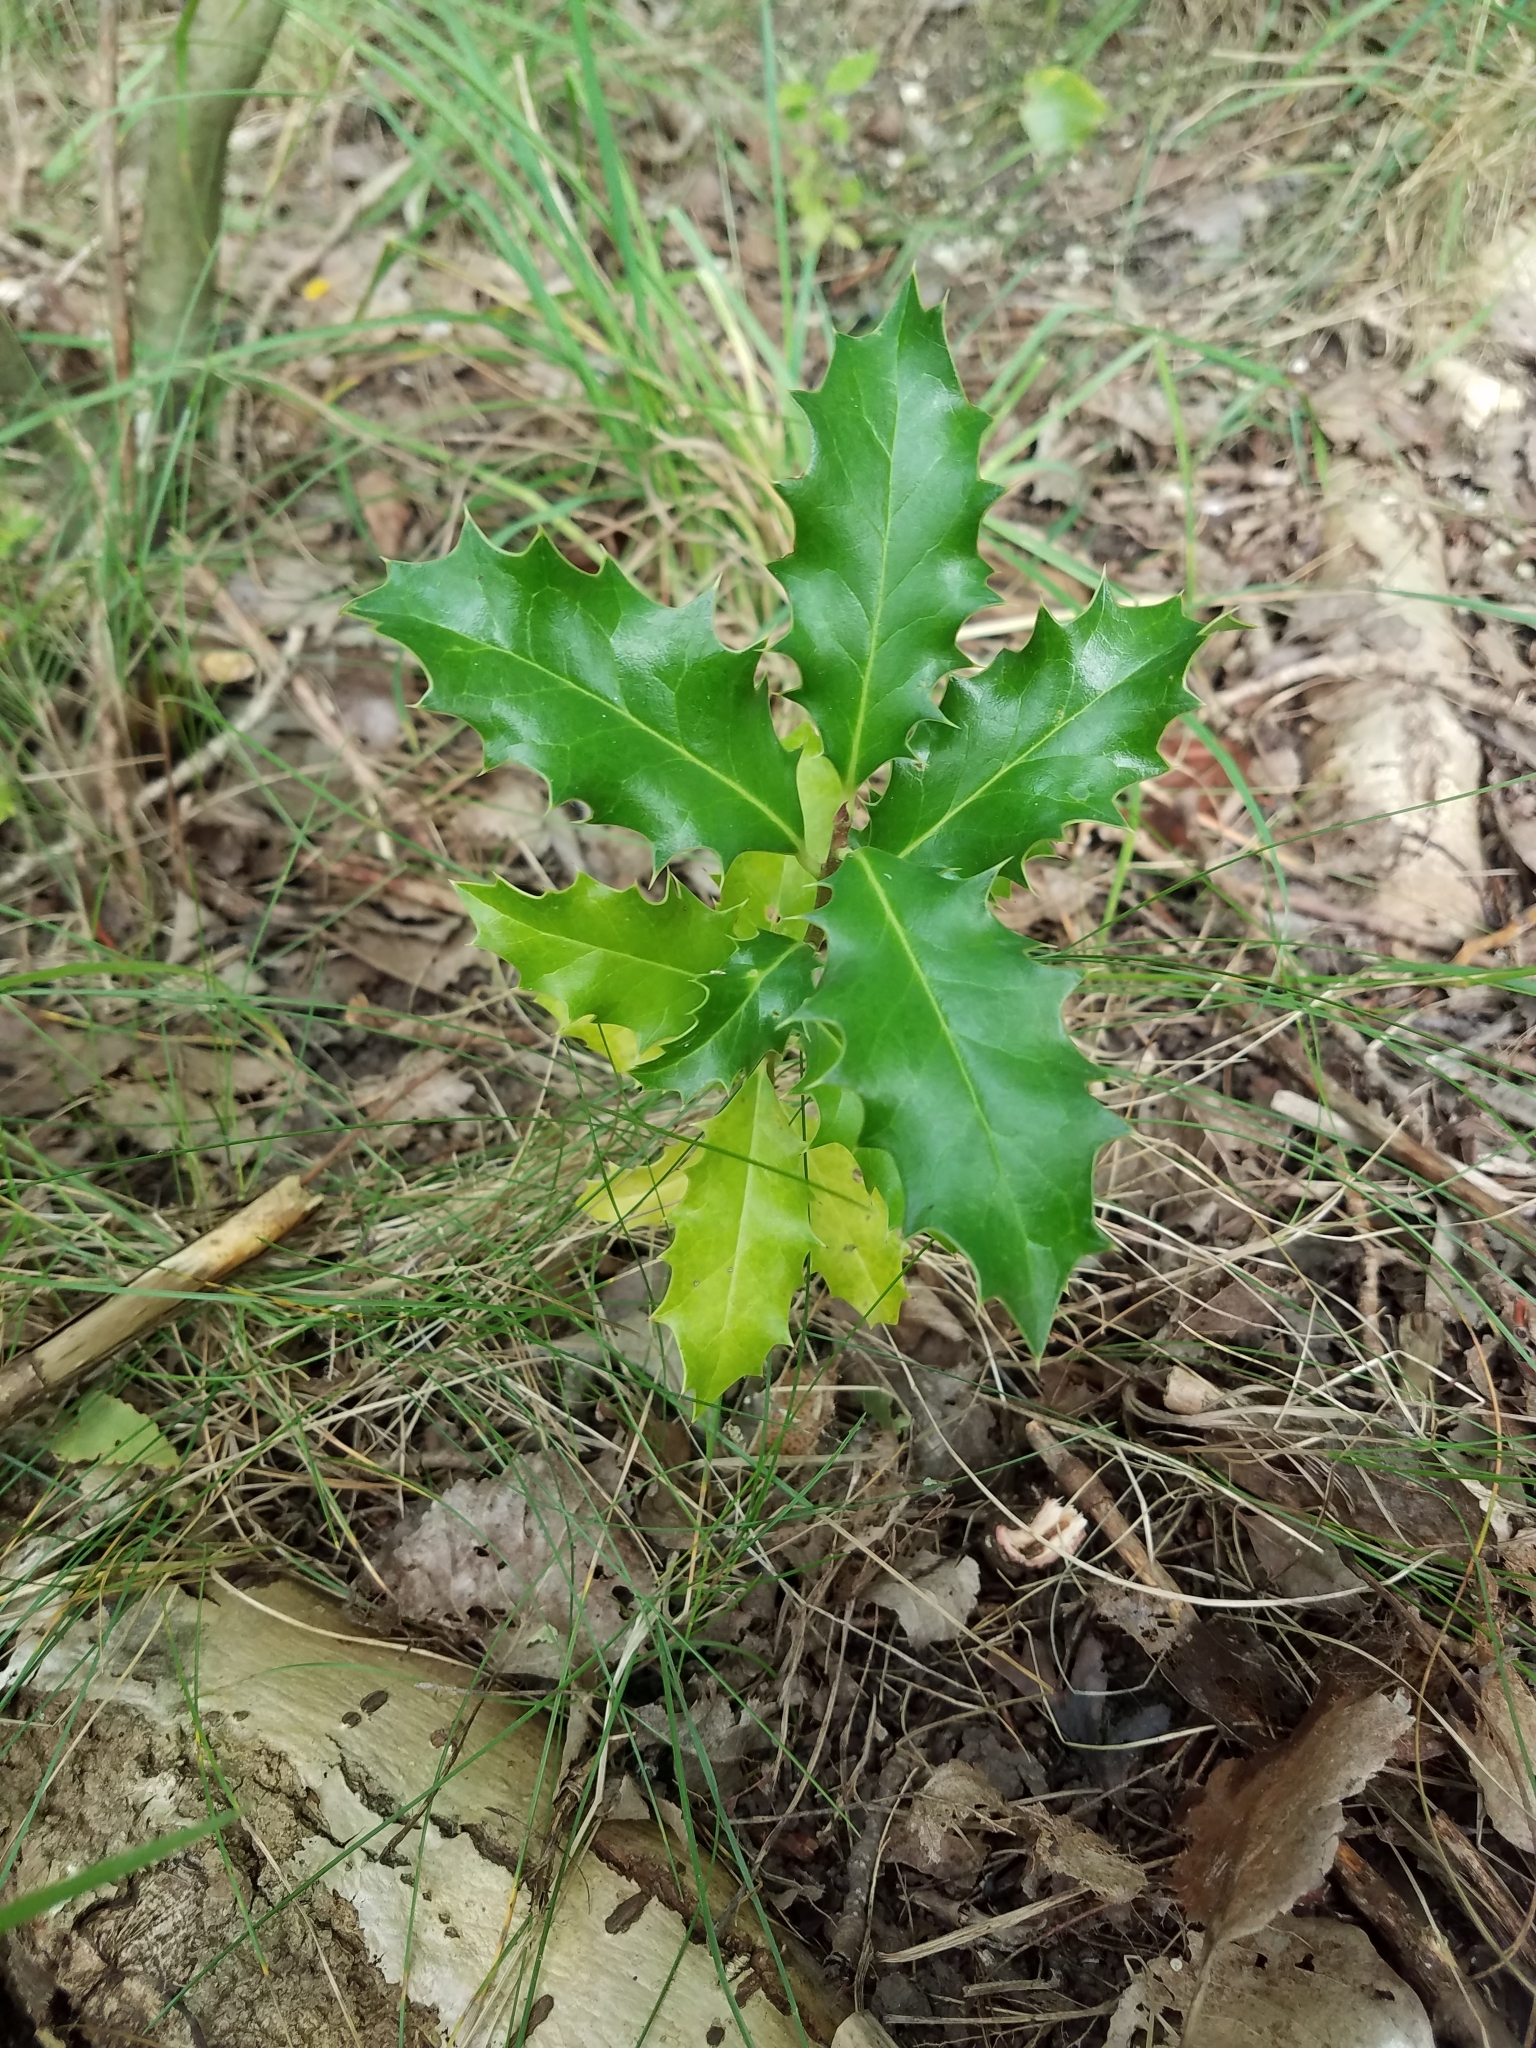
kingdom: Plantae
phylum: Tracheophyta
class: Magnoliopsida
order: Aquifoliales
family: Aquifoliaceae
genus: Ilex
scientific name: Ilex aquifolium
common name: English holly
